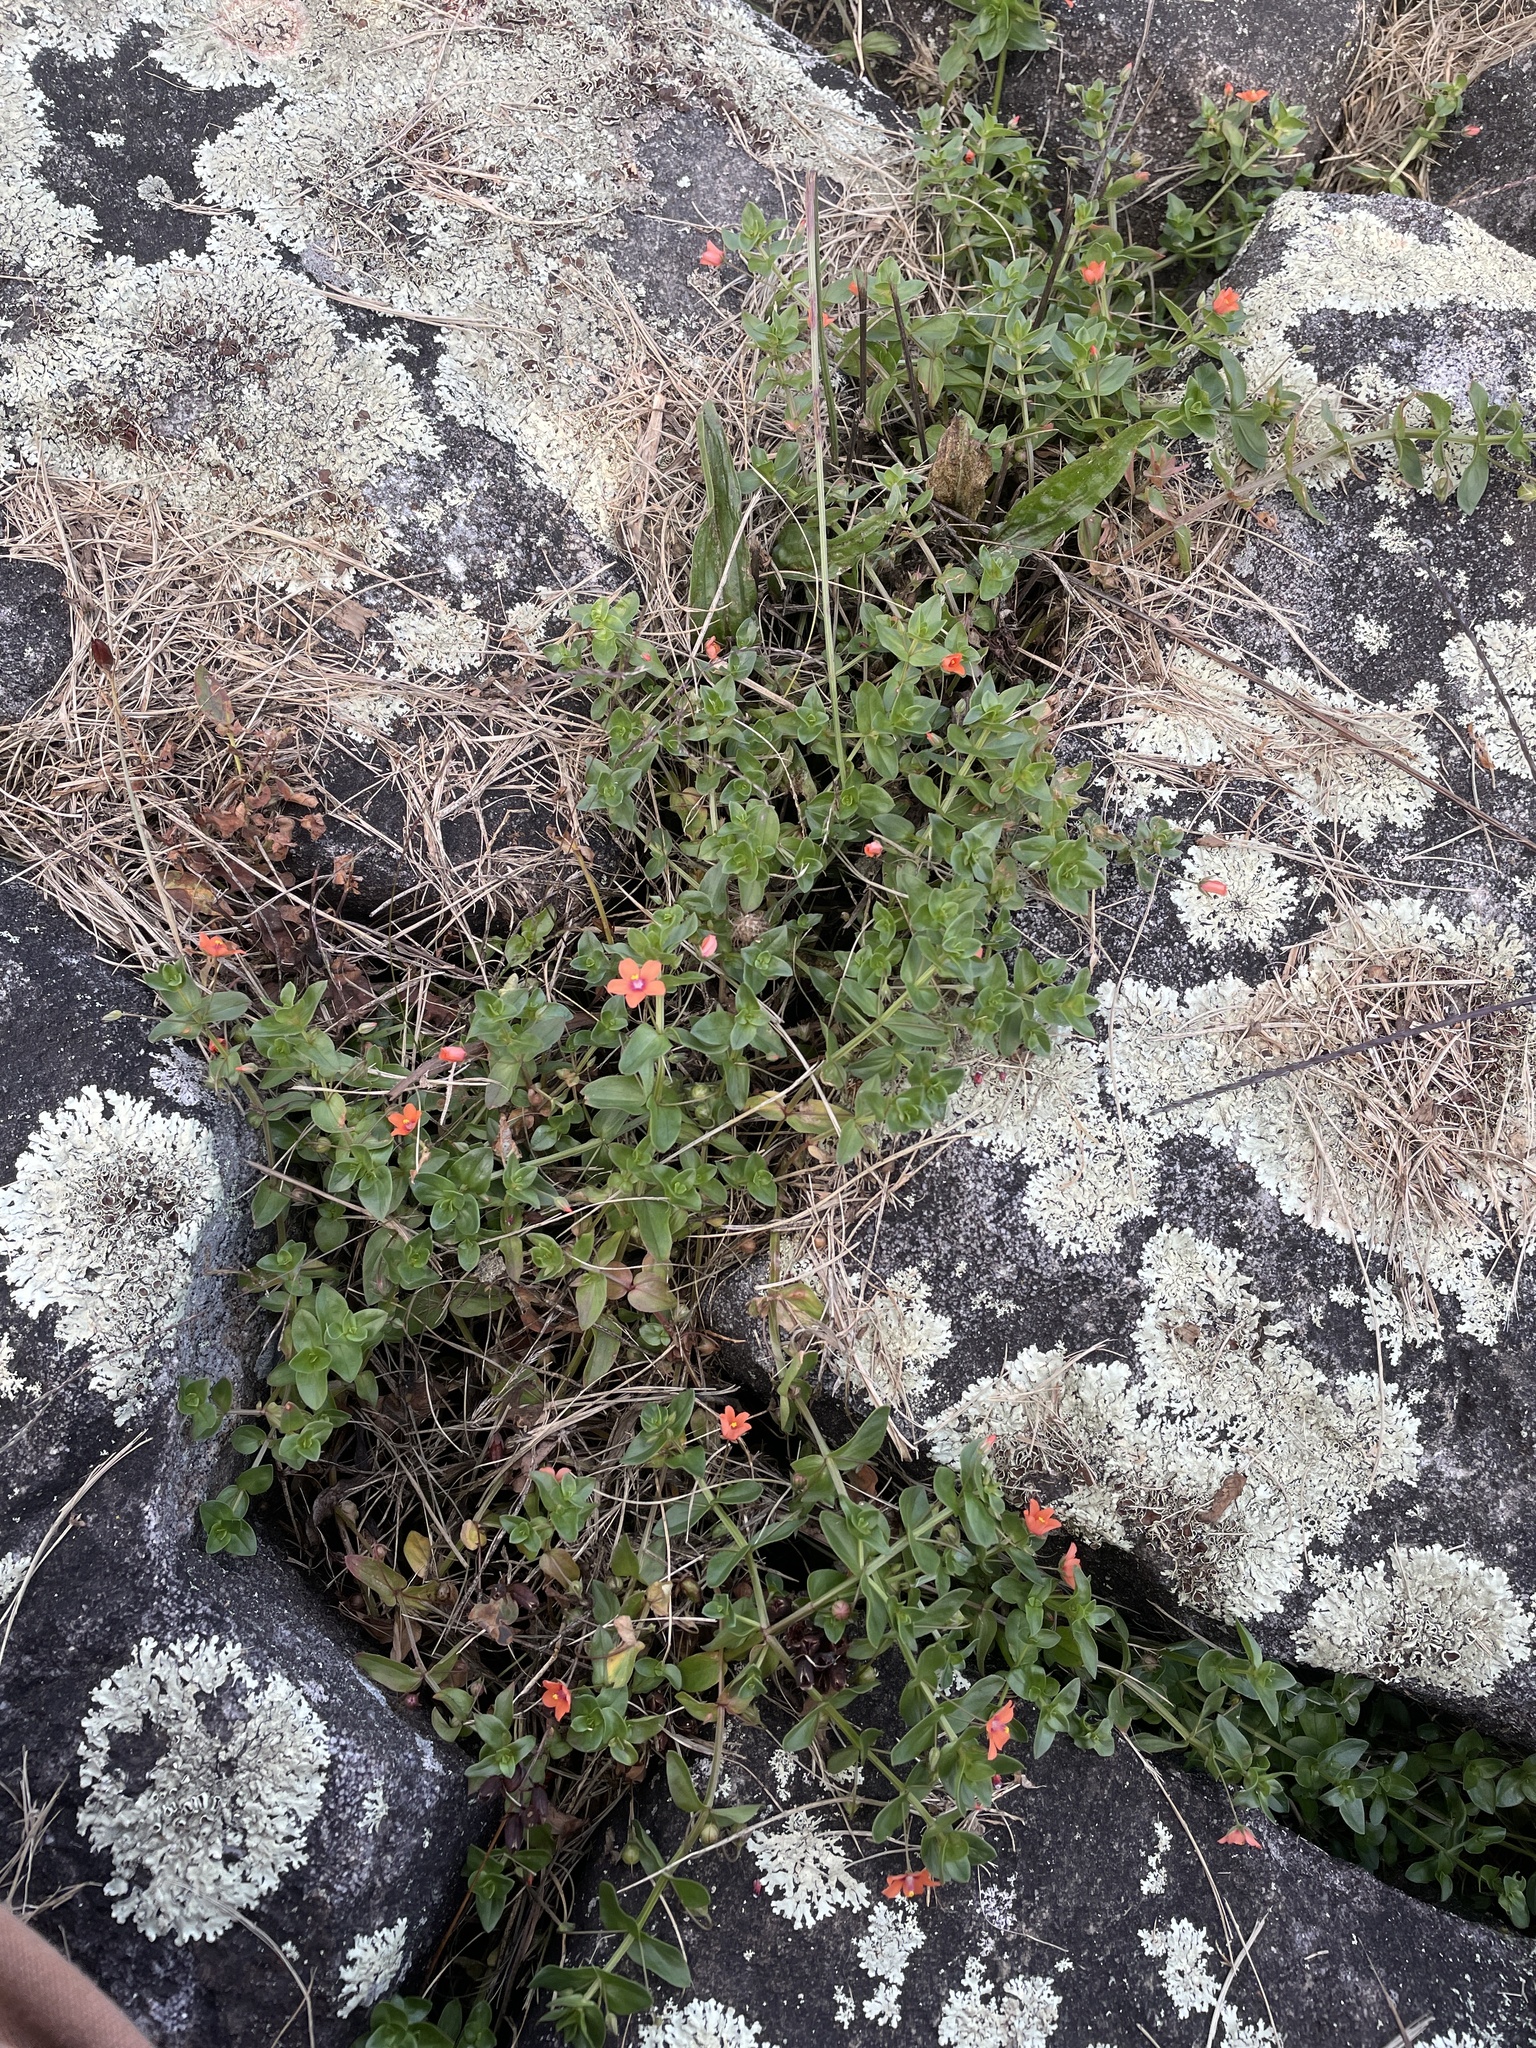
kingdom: Plantae
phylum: Tracheophyta
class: Magnoliopsida
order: Ericales
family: Primulaceae
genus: Lysimachia
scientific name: Lysimachia arvensis
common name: Scarlet pimpernel
